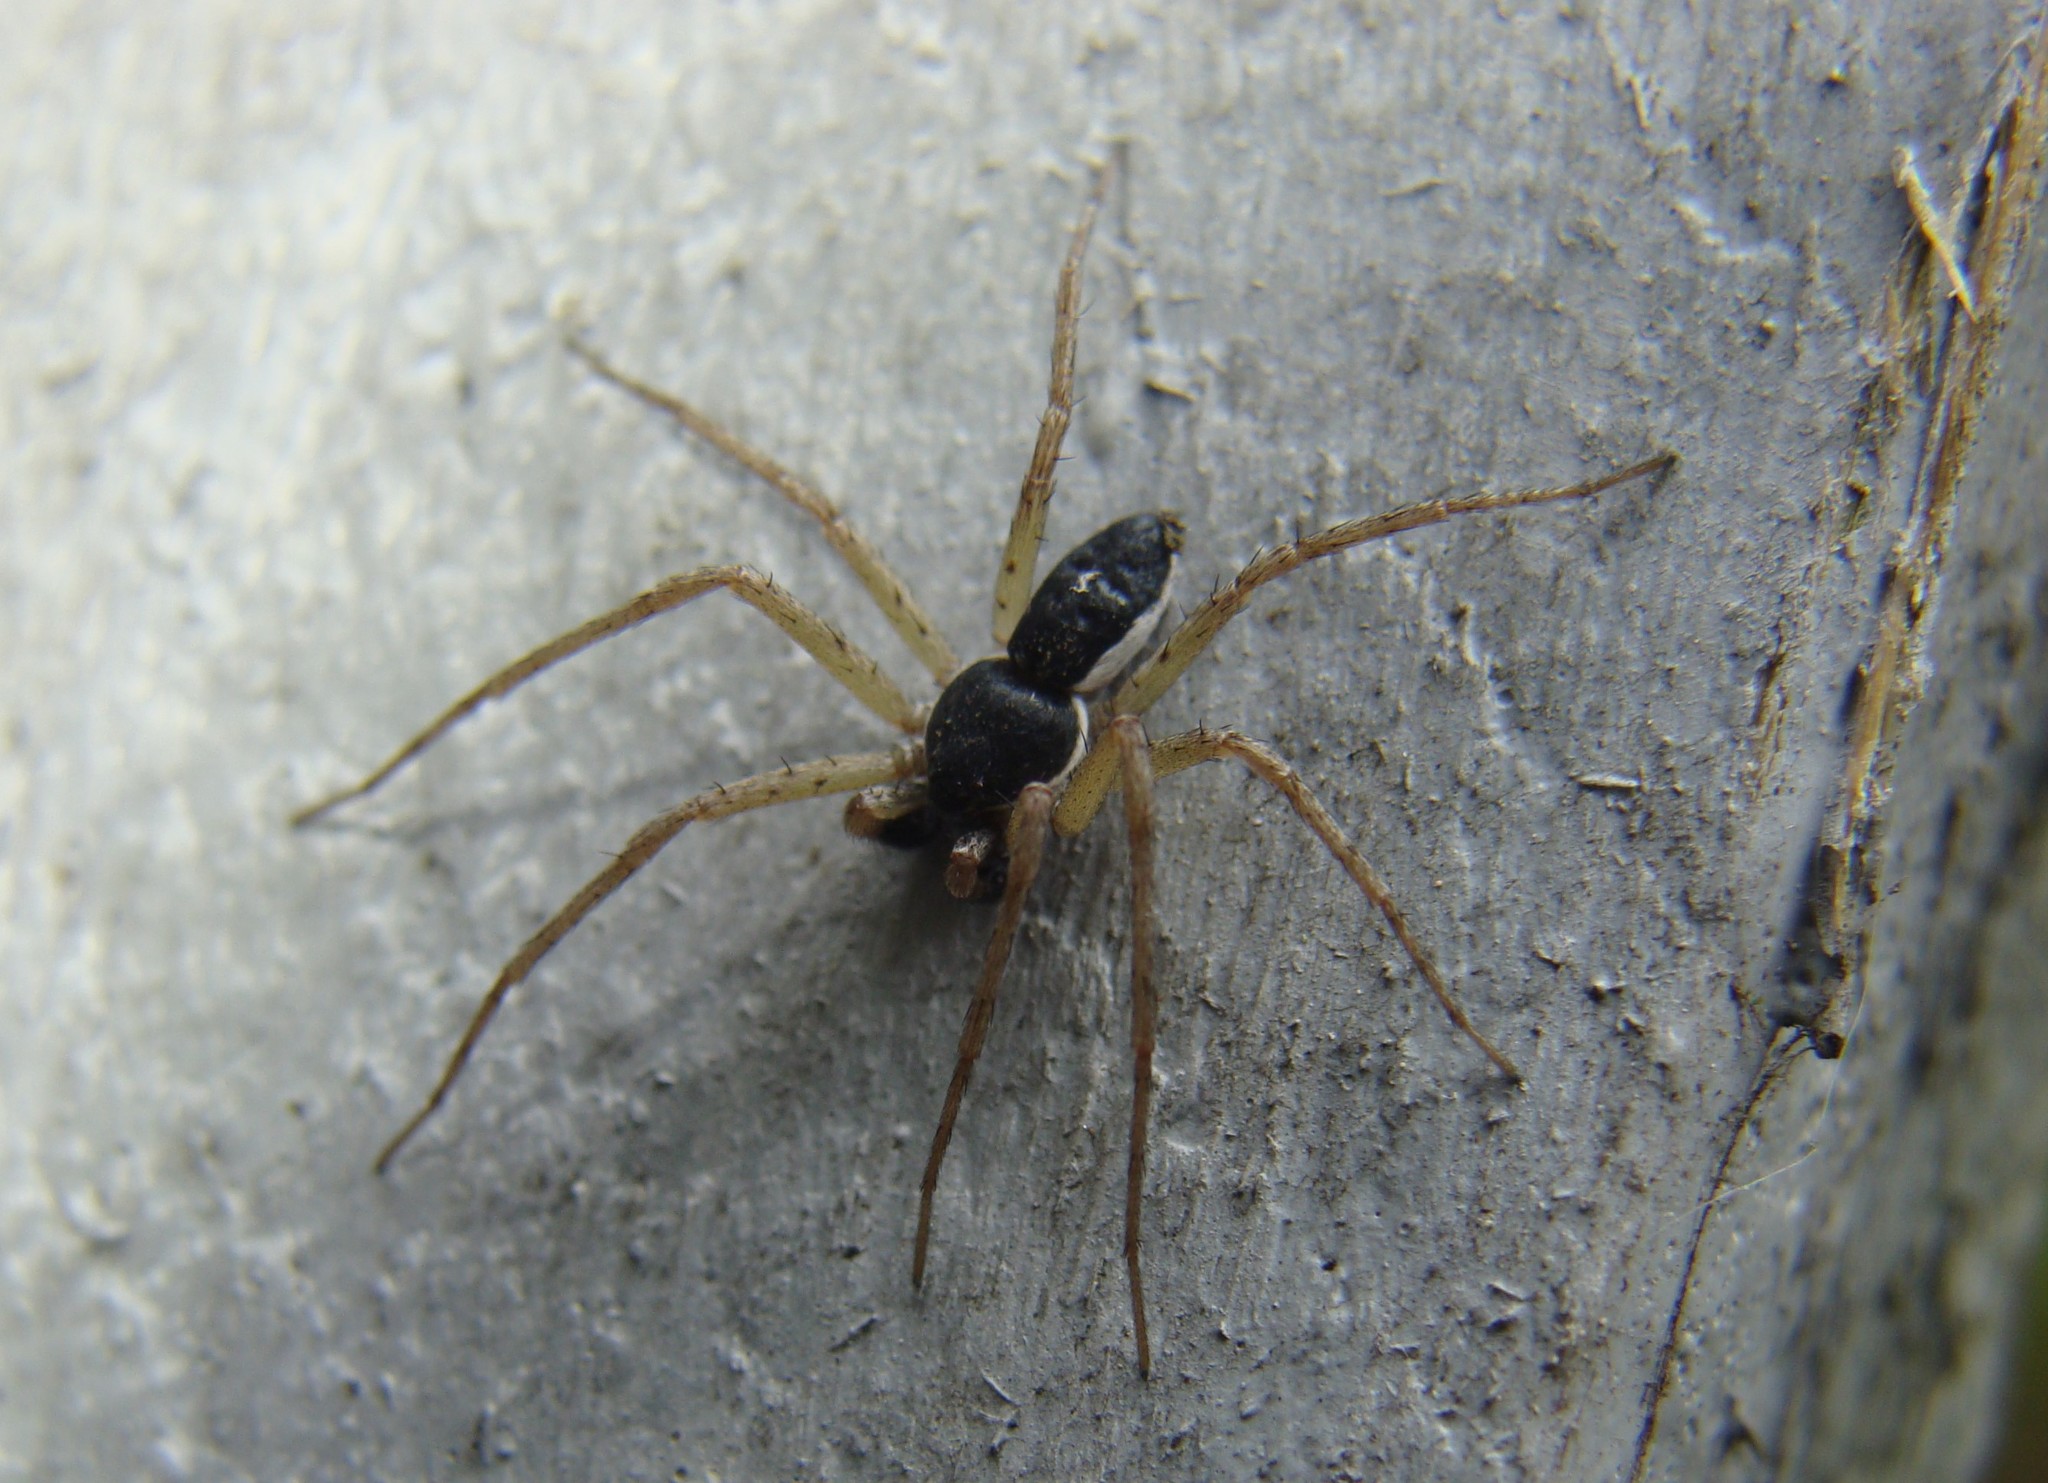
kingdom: Animalia
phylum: Arthropoda
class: Arachnida
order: Araneae
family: Philodromidae
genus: Philodromus
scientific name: Philodromus dispar
